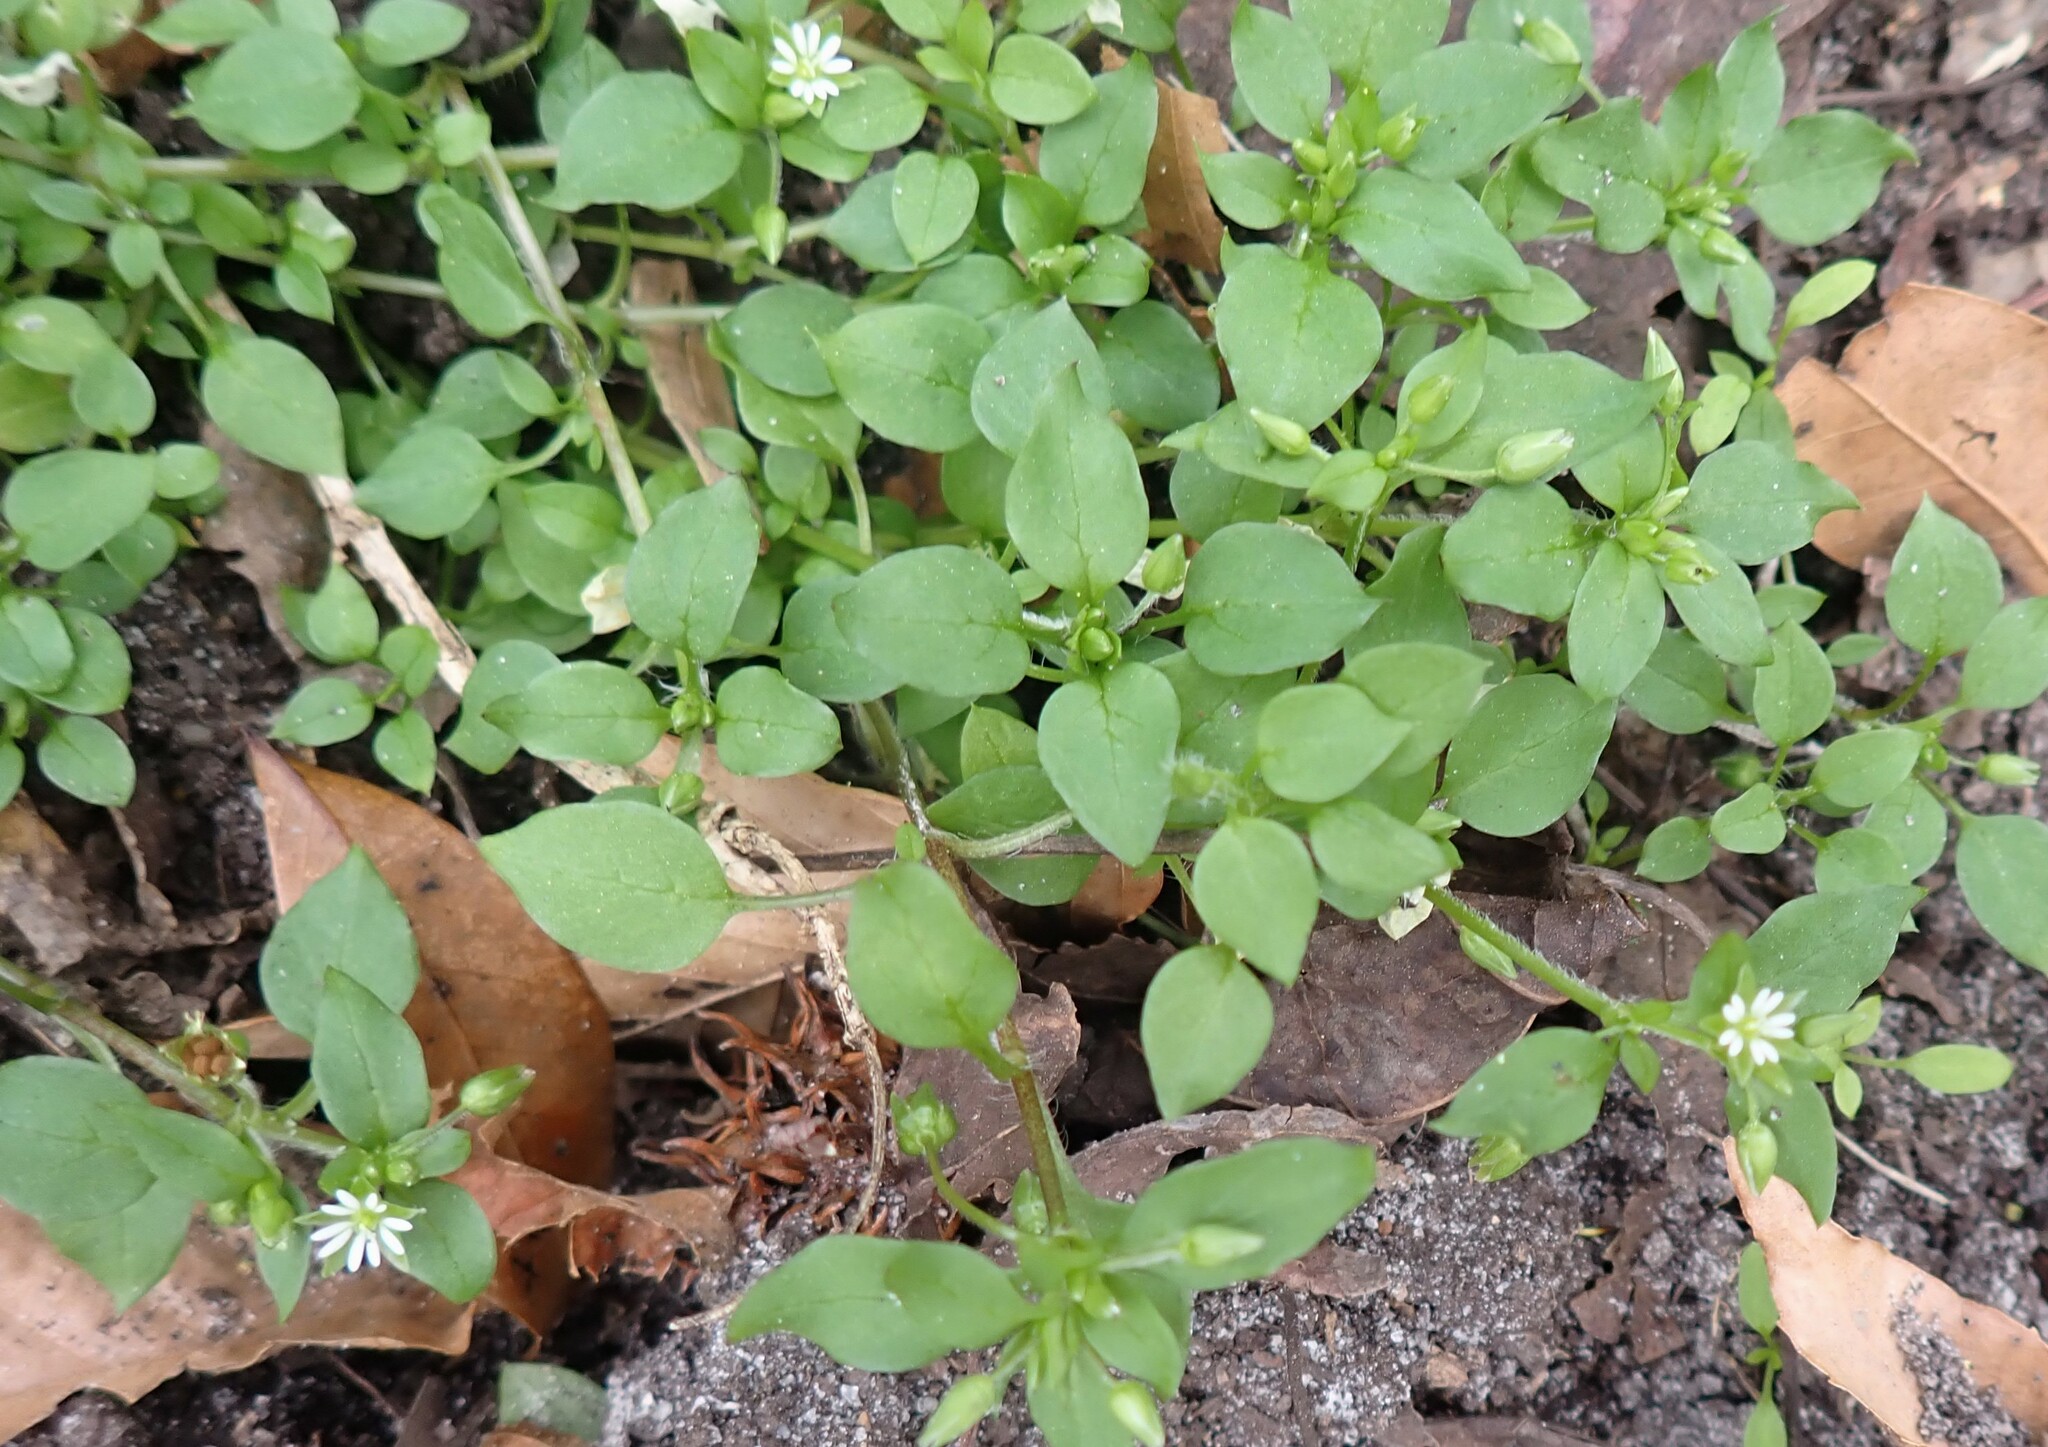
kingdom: Plantae
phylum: Tracheophyta
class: Magnoliopsida
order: Caryophyllales
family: Caryophyllaceae
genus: Stellaria
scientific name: Stellaria media
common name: Common chickweed
